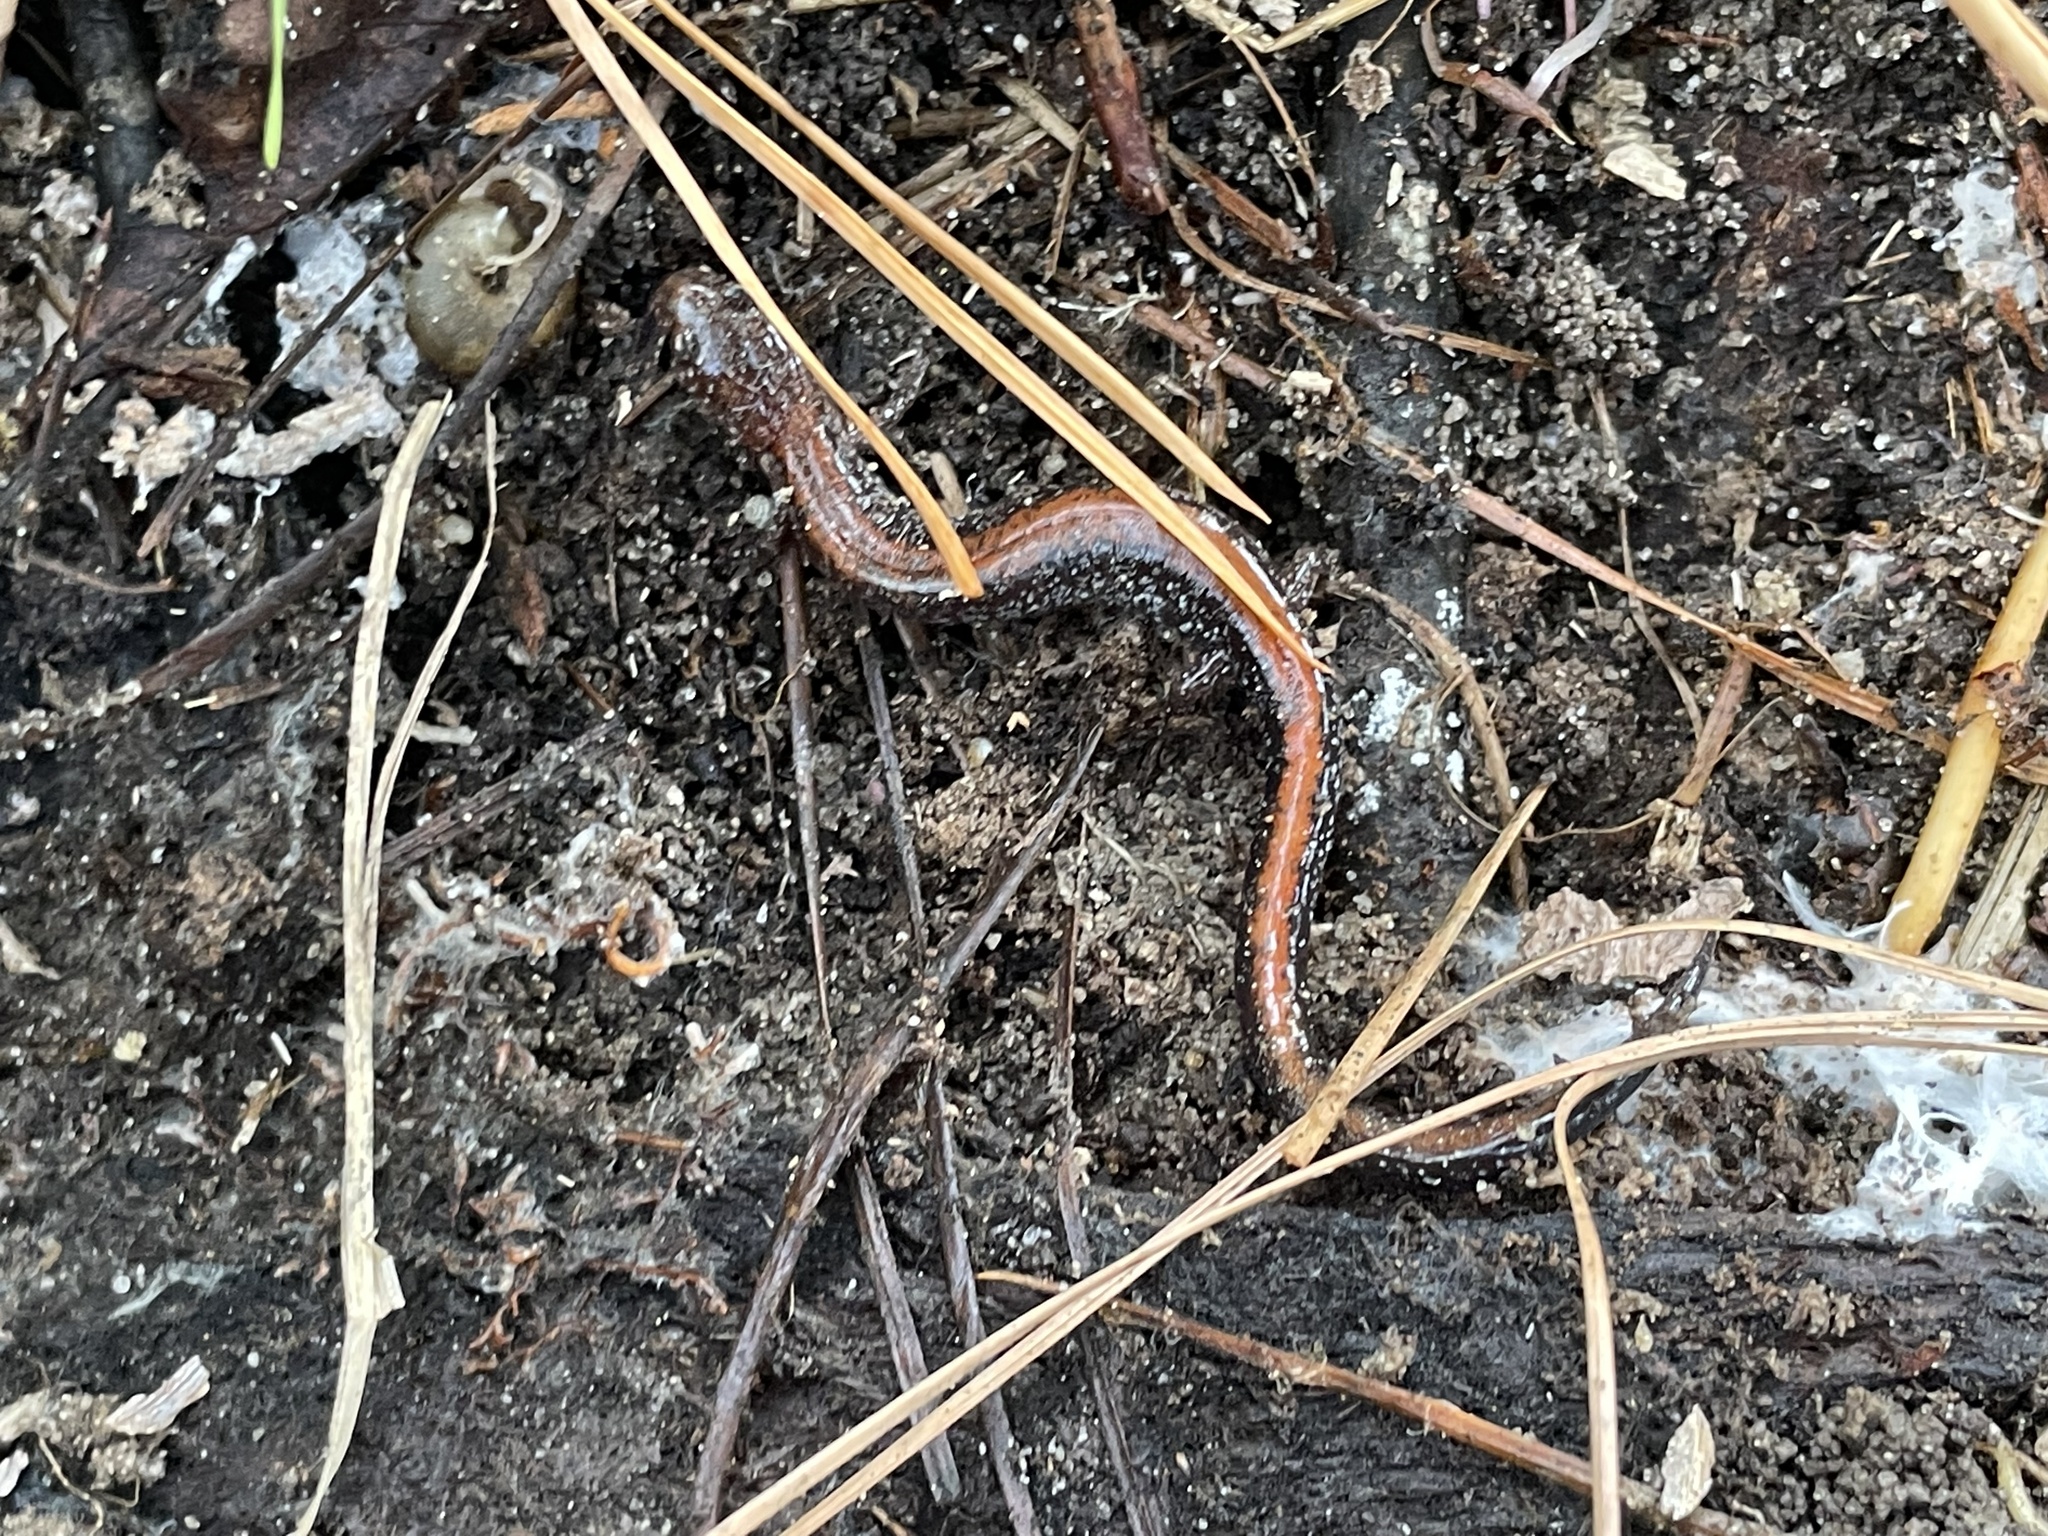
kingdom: Animalia
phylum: Chordata
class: Amphibia
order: Caudata
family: Plethodontidae
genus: Plethodon
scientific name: Plethodon cinereus
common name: Redback salamander
